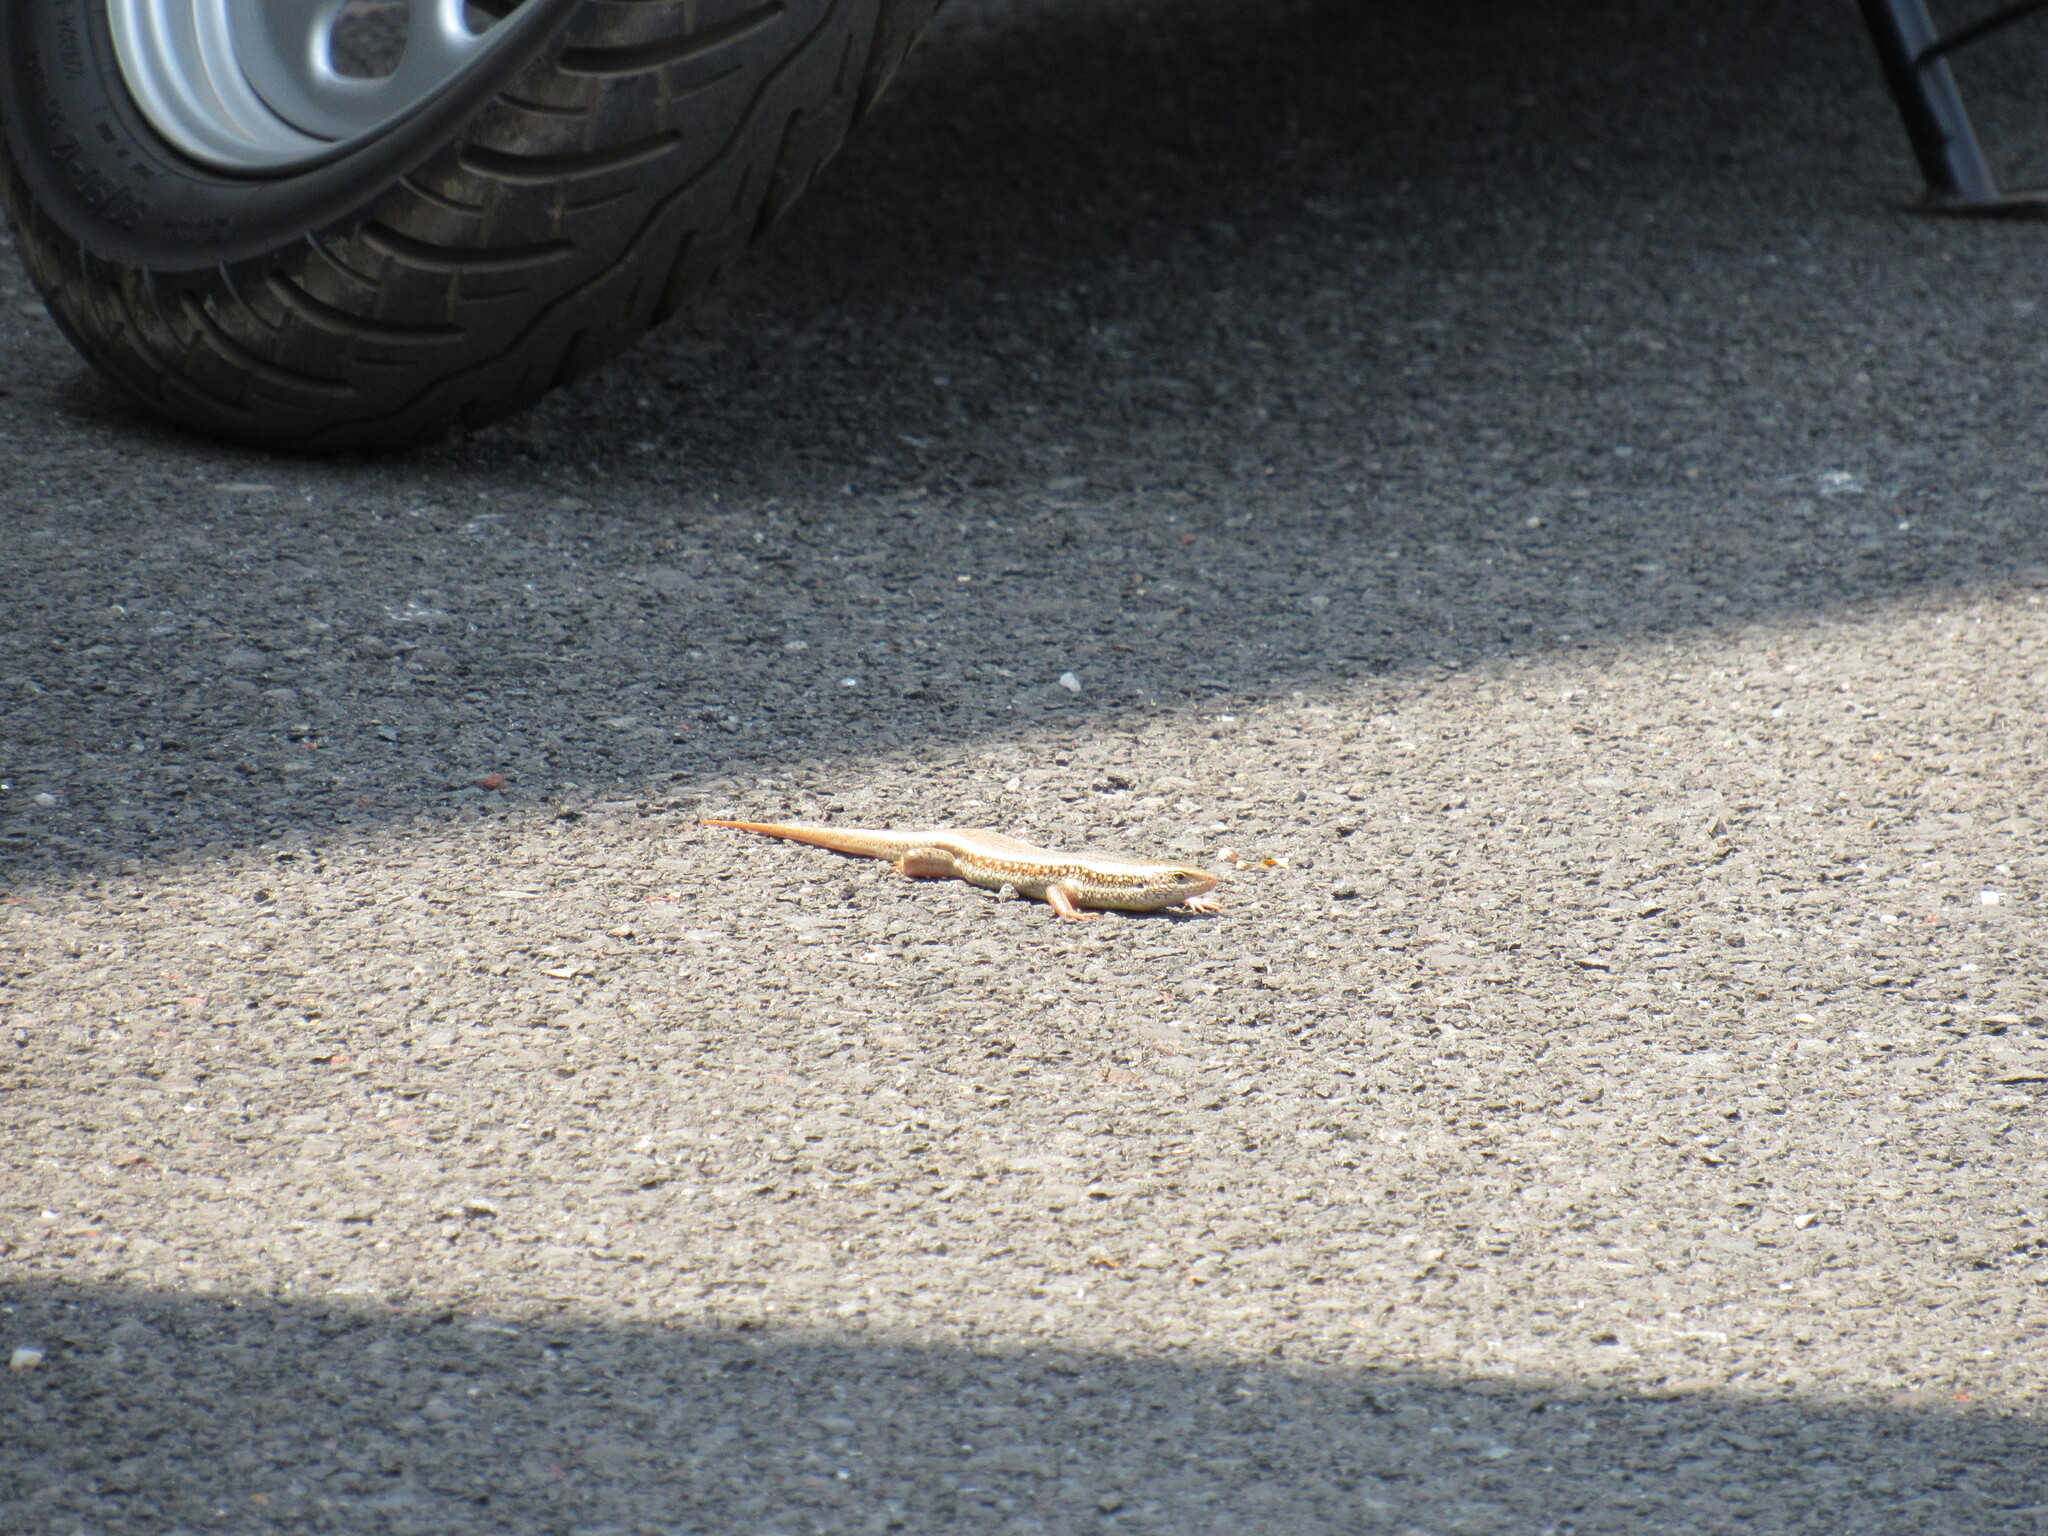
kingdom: Animalia
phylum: Chordata
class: Squamata
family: Scincidae
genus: Eutropis
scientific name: Eutropis carinata
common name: Keeled indian mabuya
